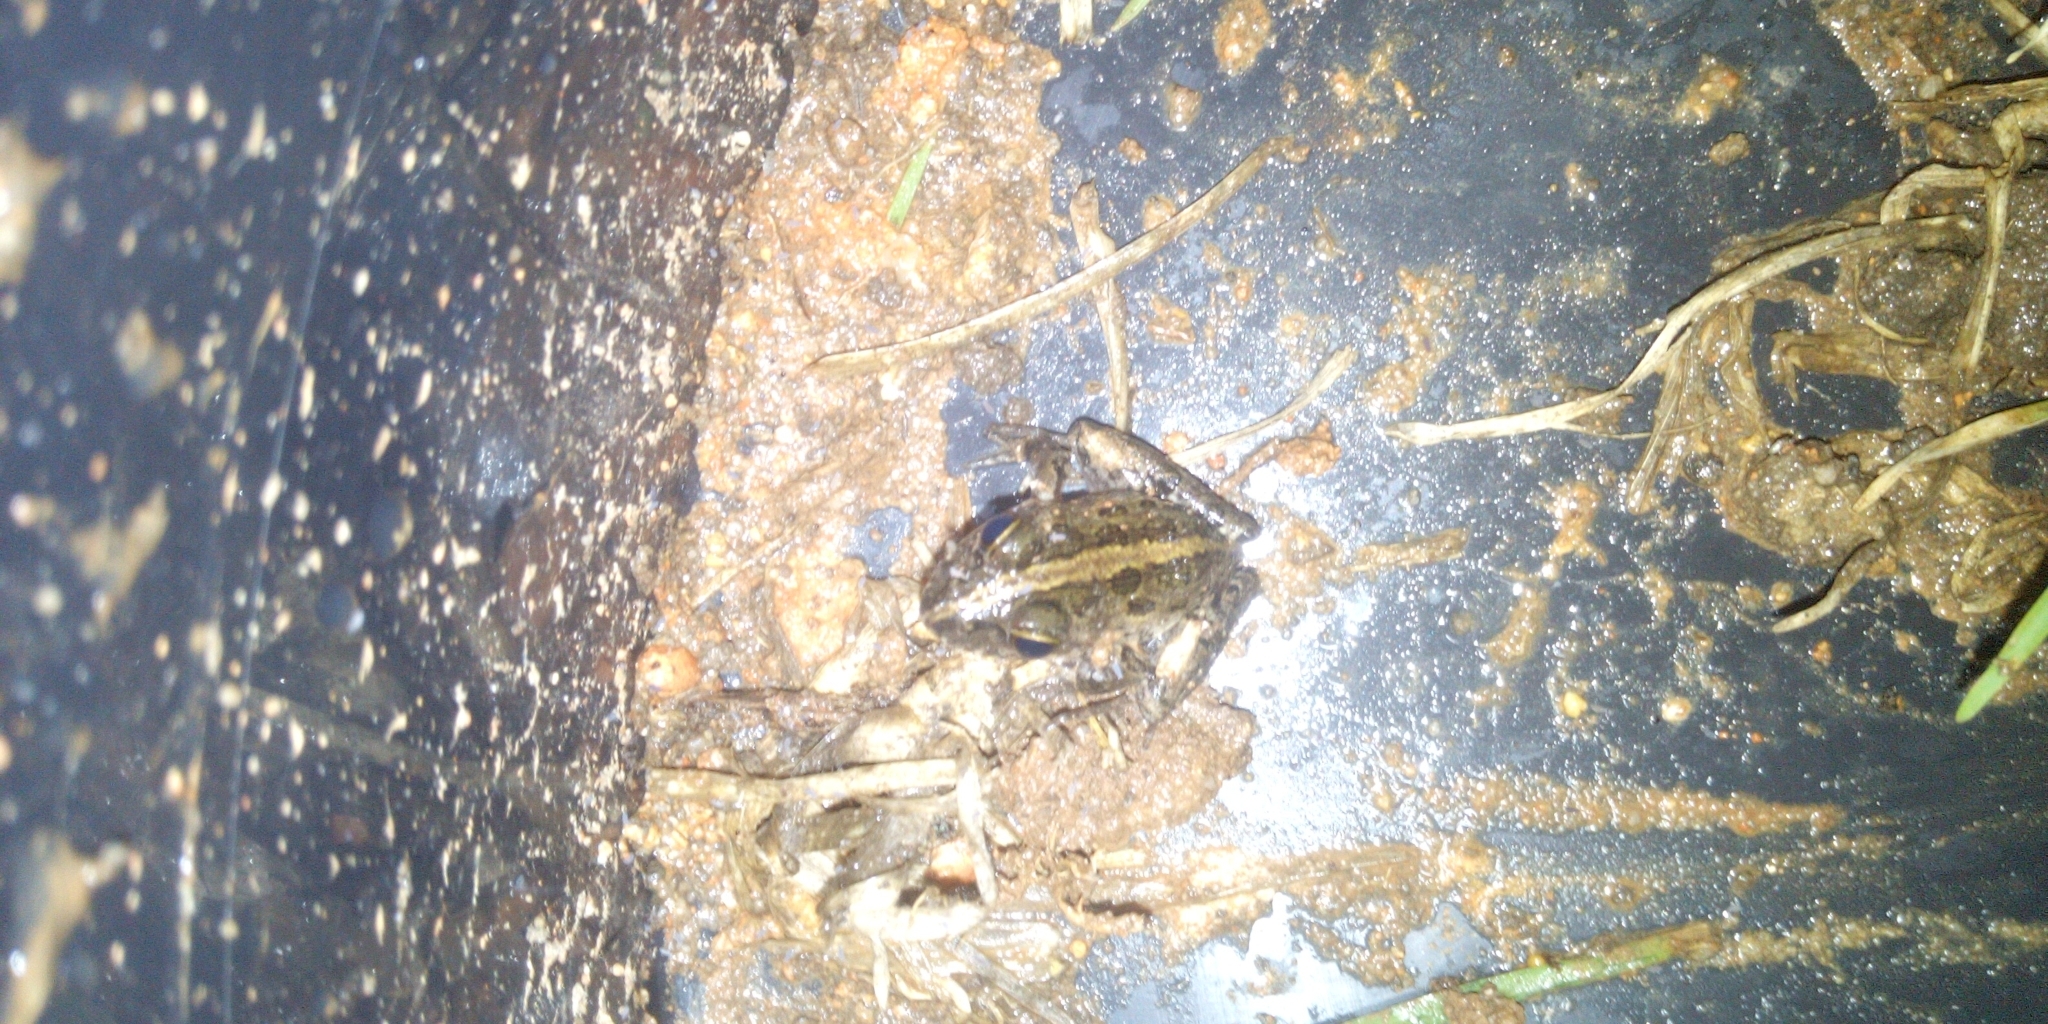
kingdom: Animalia
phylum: Chordata
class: Amphibia
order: Anura
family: Pyxicephalidae
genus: Strongylopus
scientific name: Strongylopus grayii
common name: Gray's stream frog
